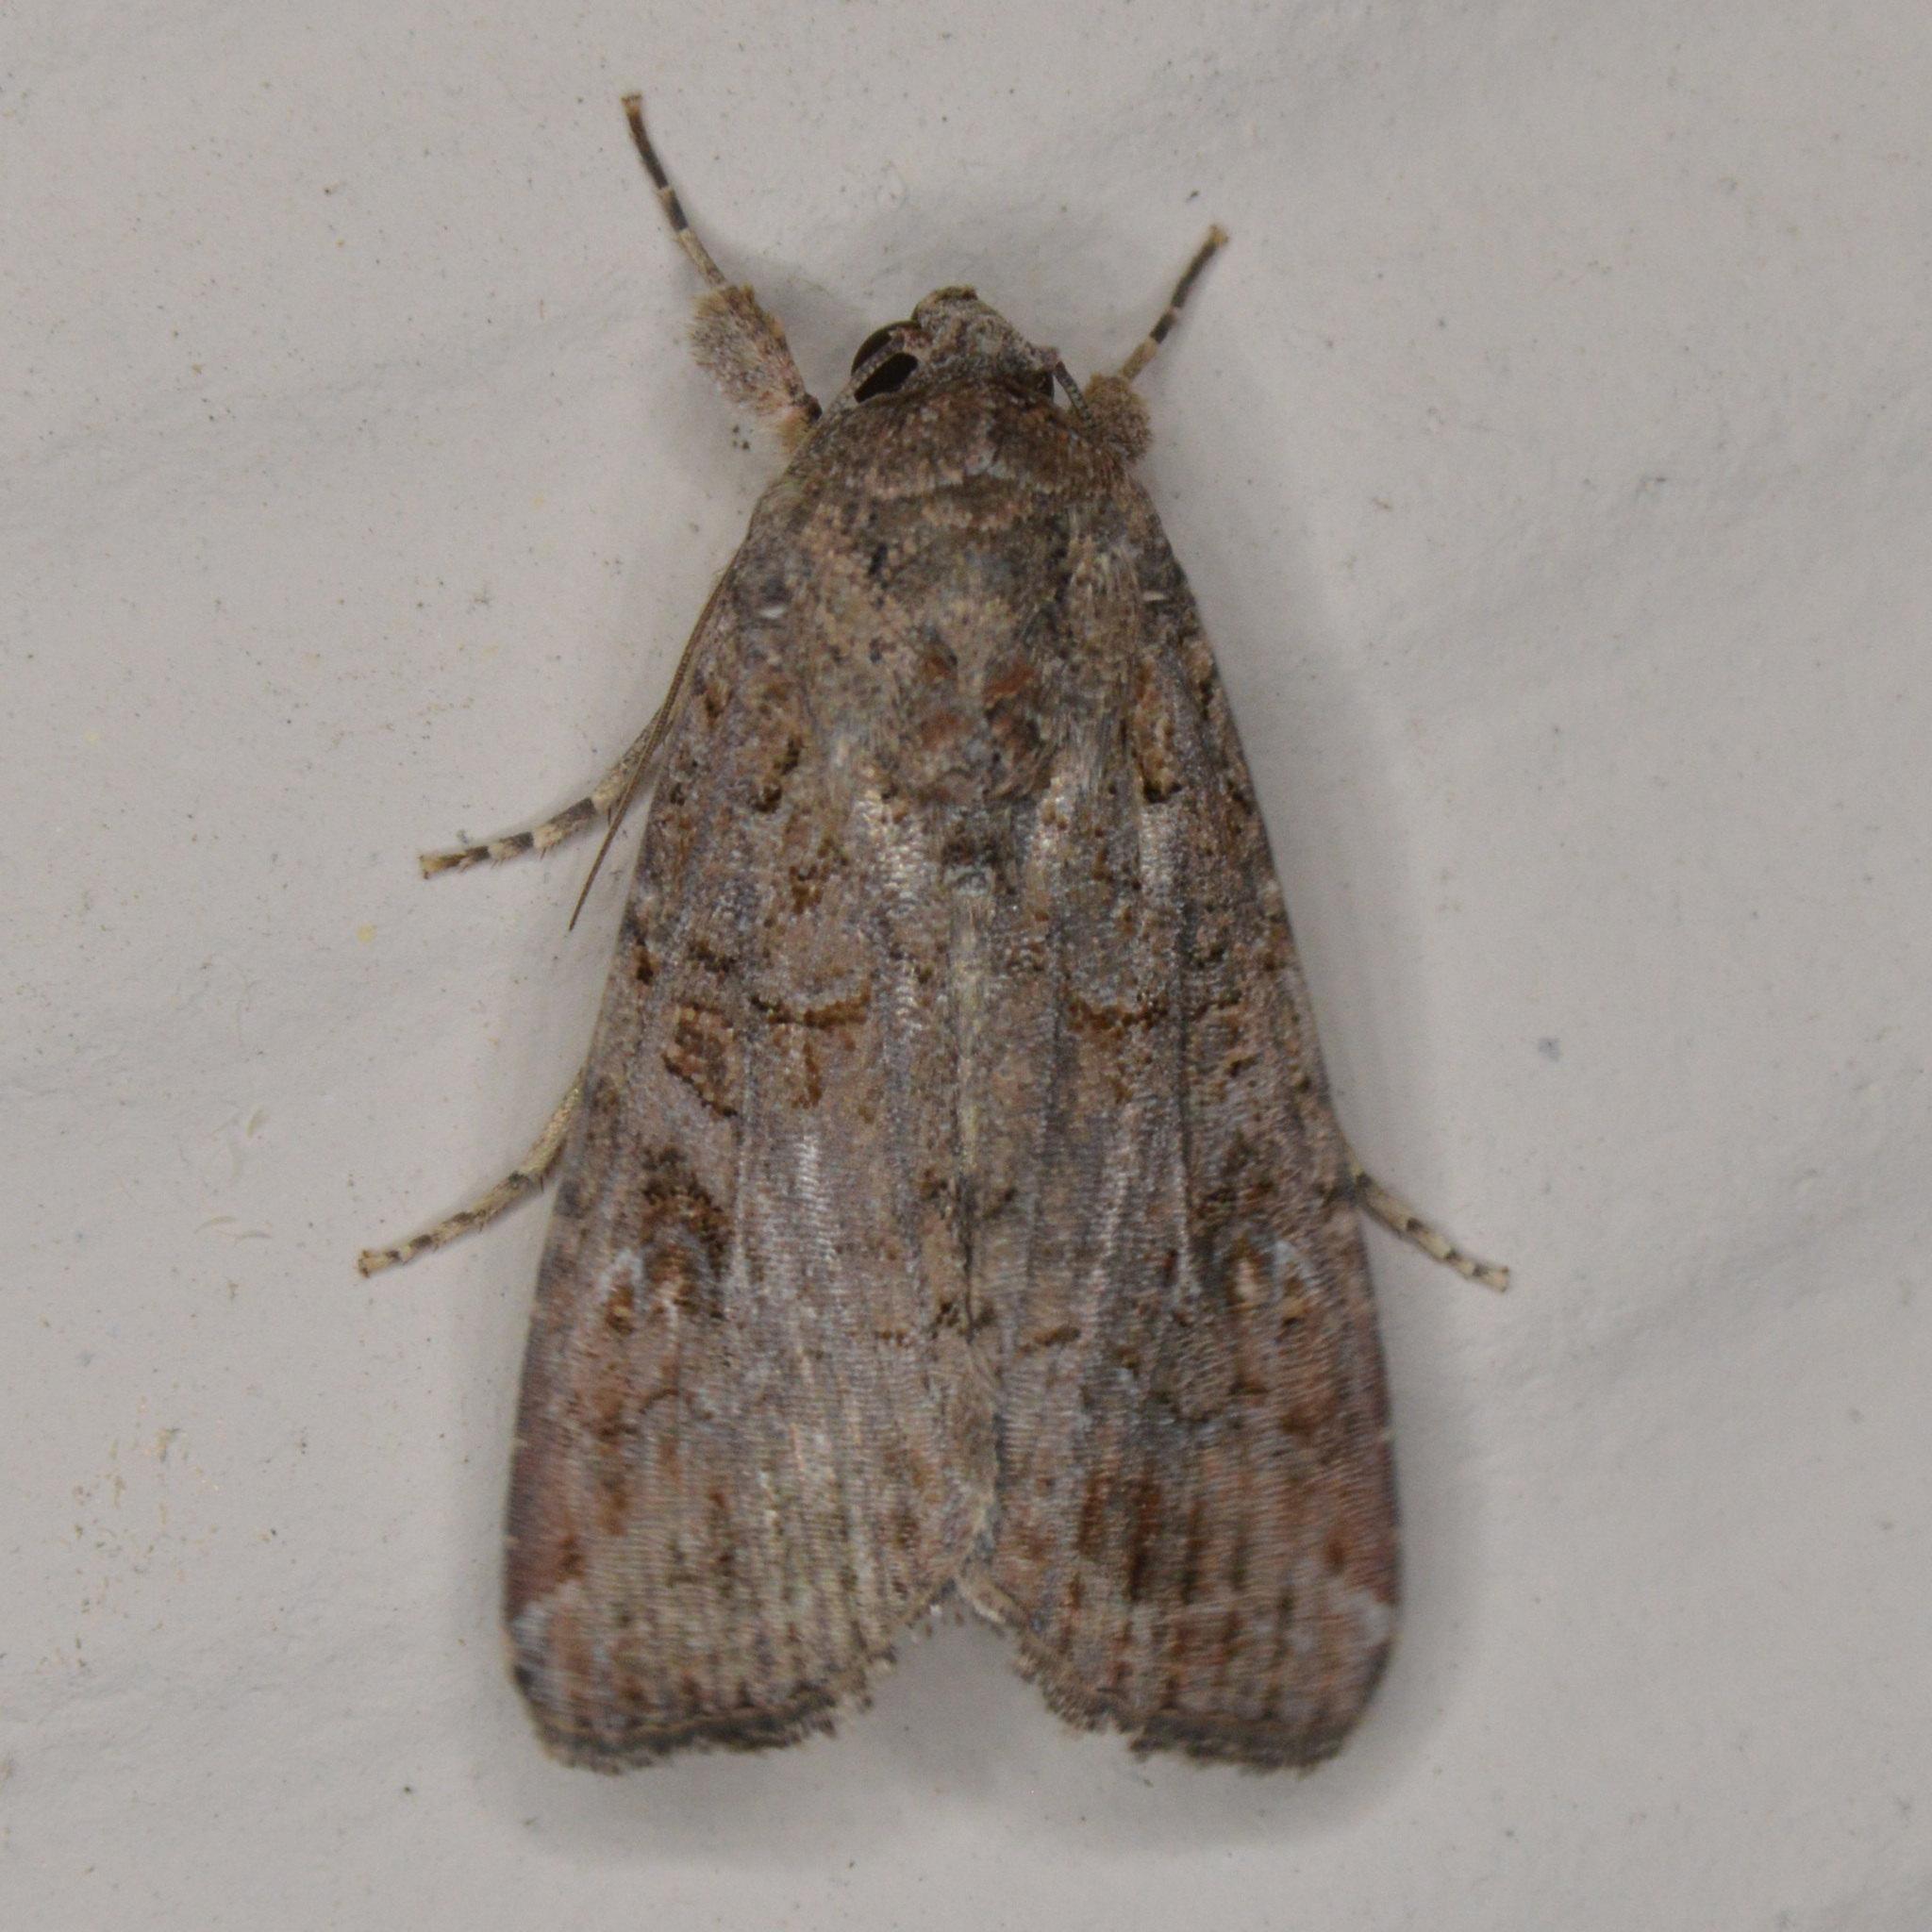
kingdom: Animalia
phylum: Arthropoda
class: Insecta
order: Lepidoptera
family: Noctuidae
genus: Spodoptera
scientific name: Spodoptera frugiperda
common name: Fall armyworm
